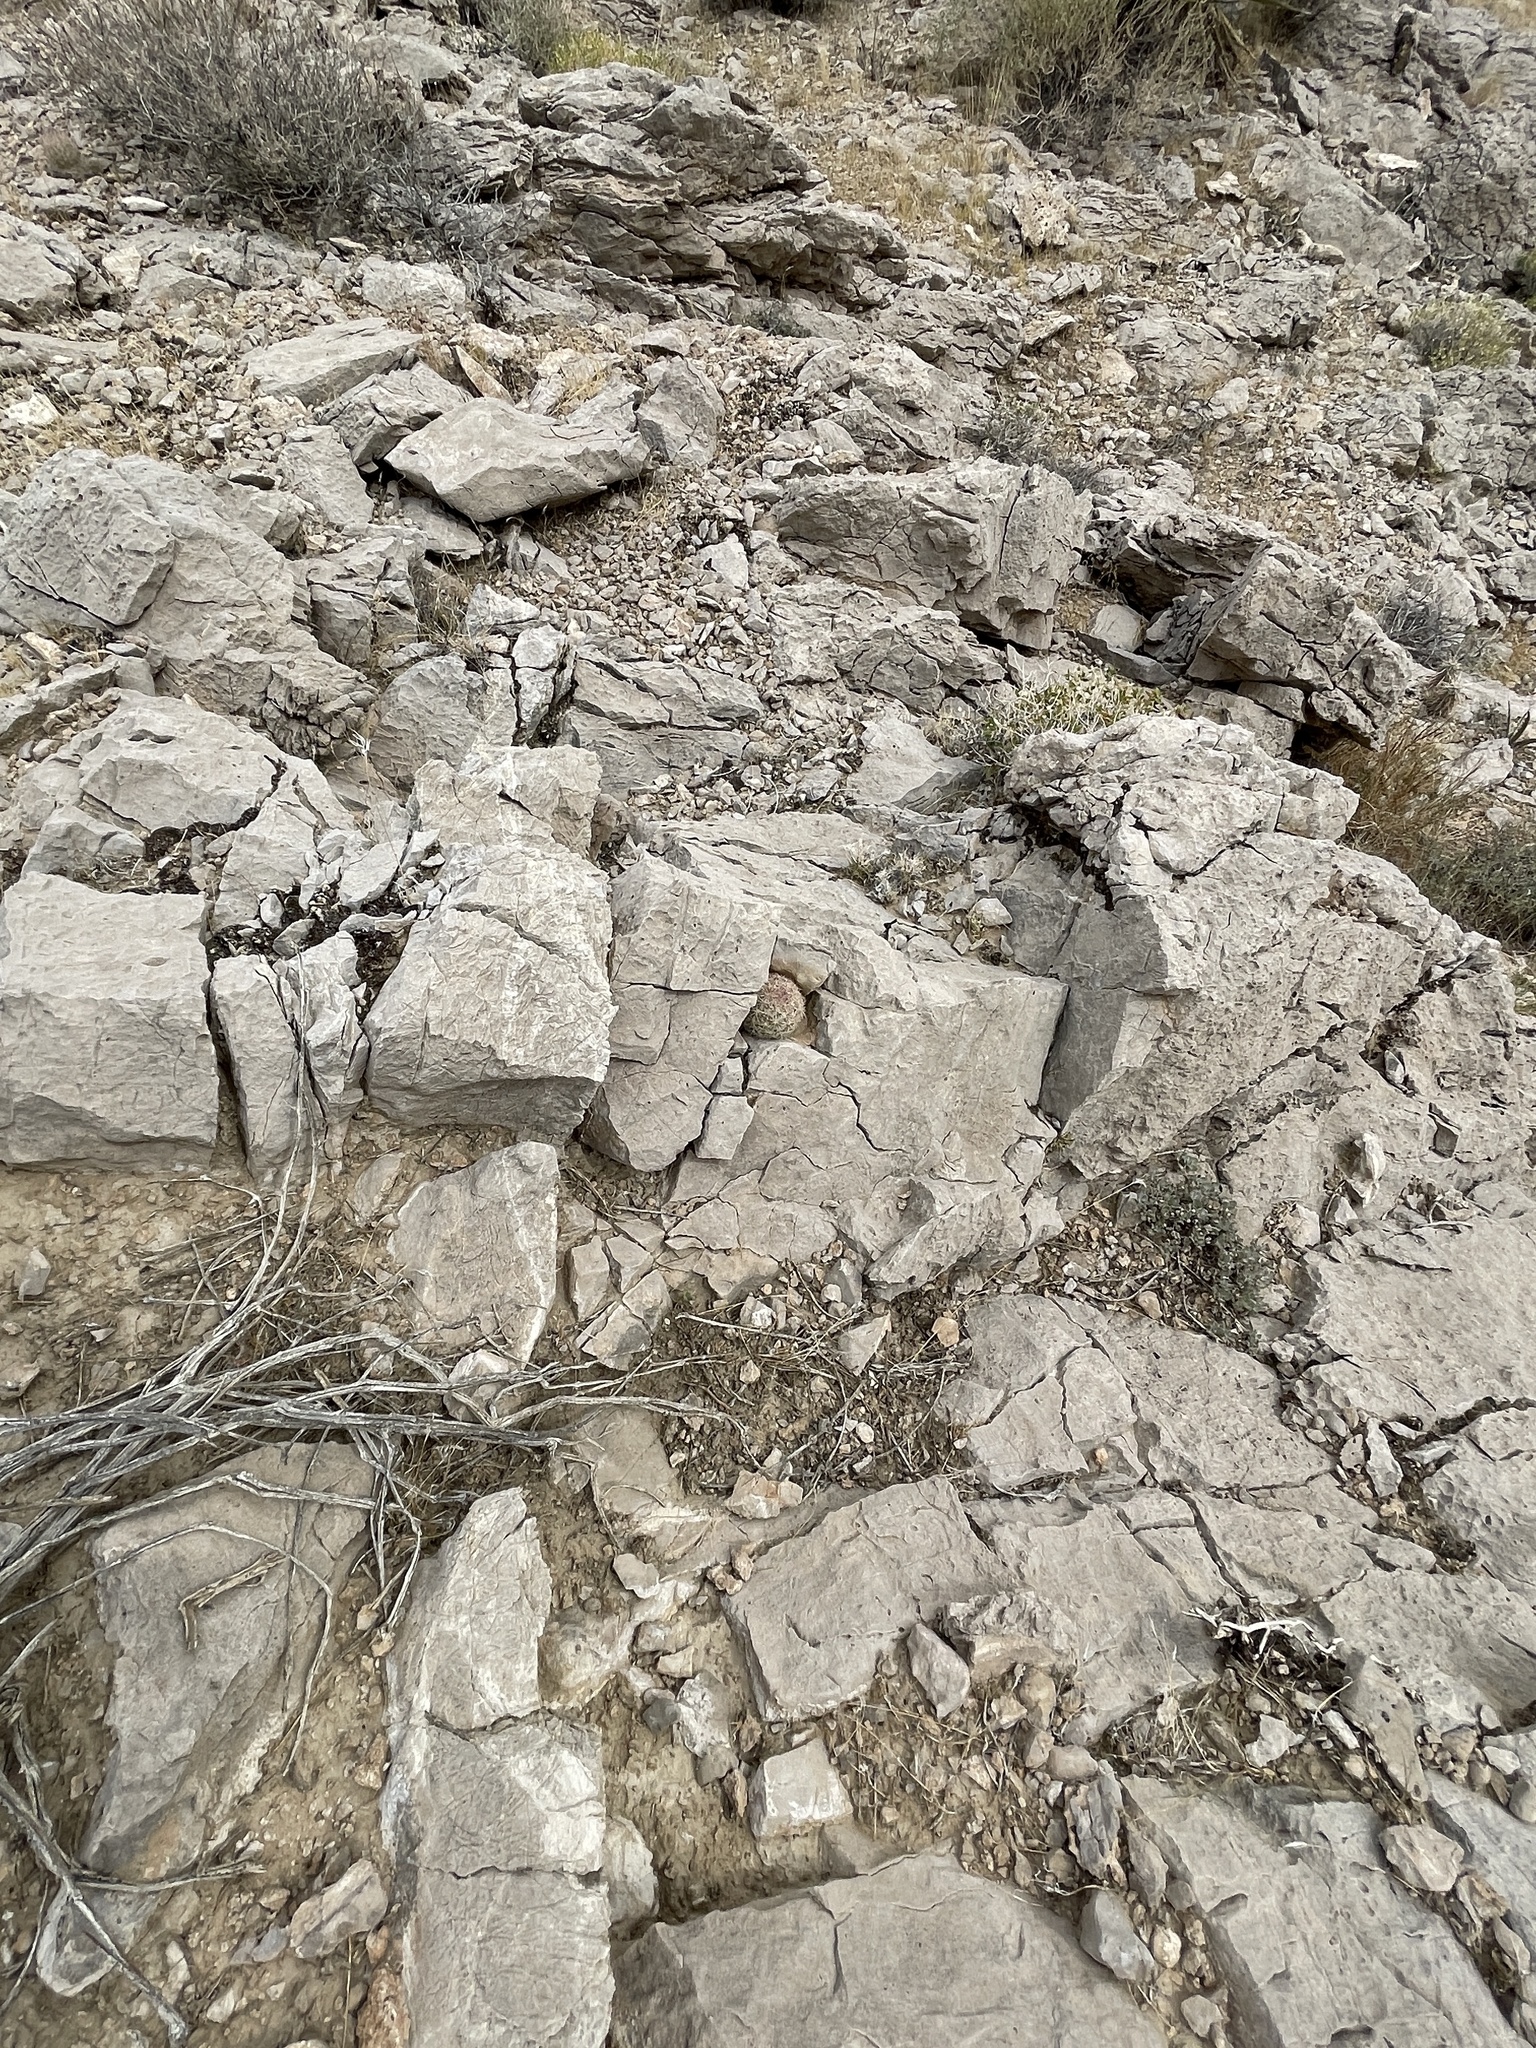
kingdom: Plantae
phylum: Tracheophyta
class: Magnoliopsida
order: Caryophyllales
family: Cactaceae
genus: Pelecyphora
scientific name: Pelecyphora dasyacantha
